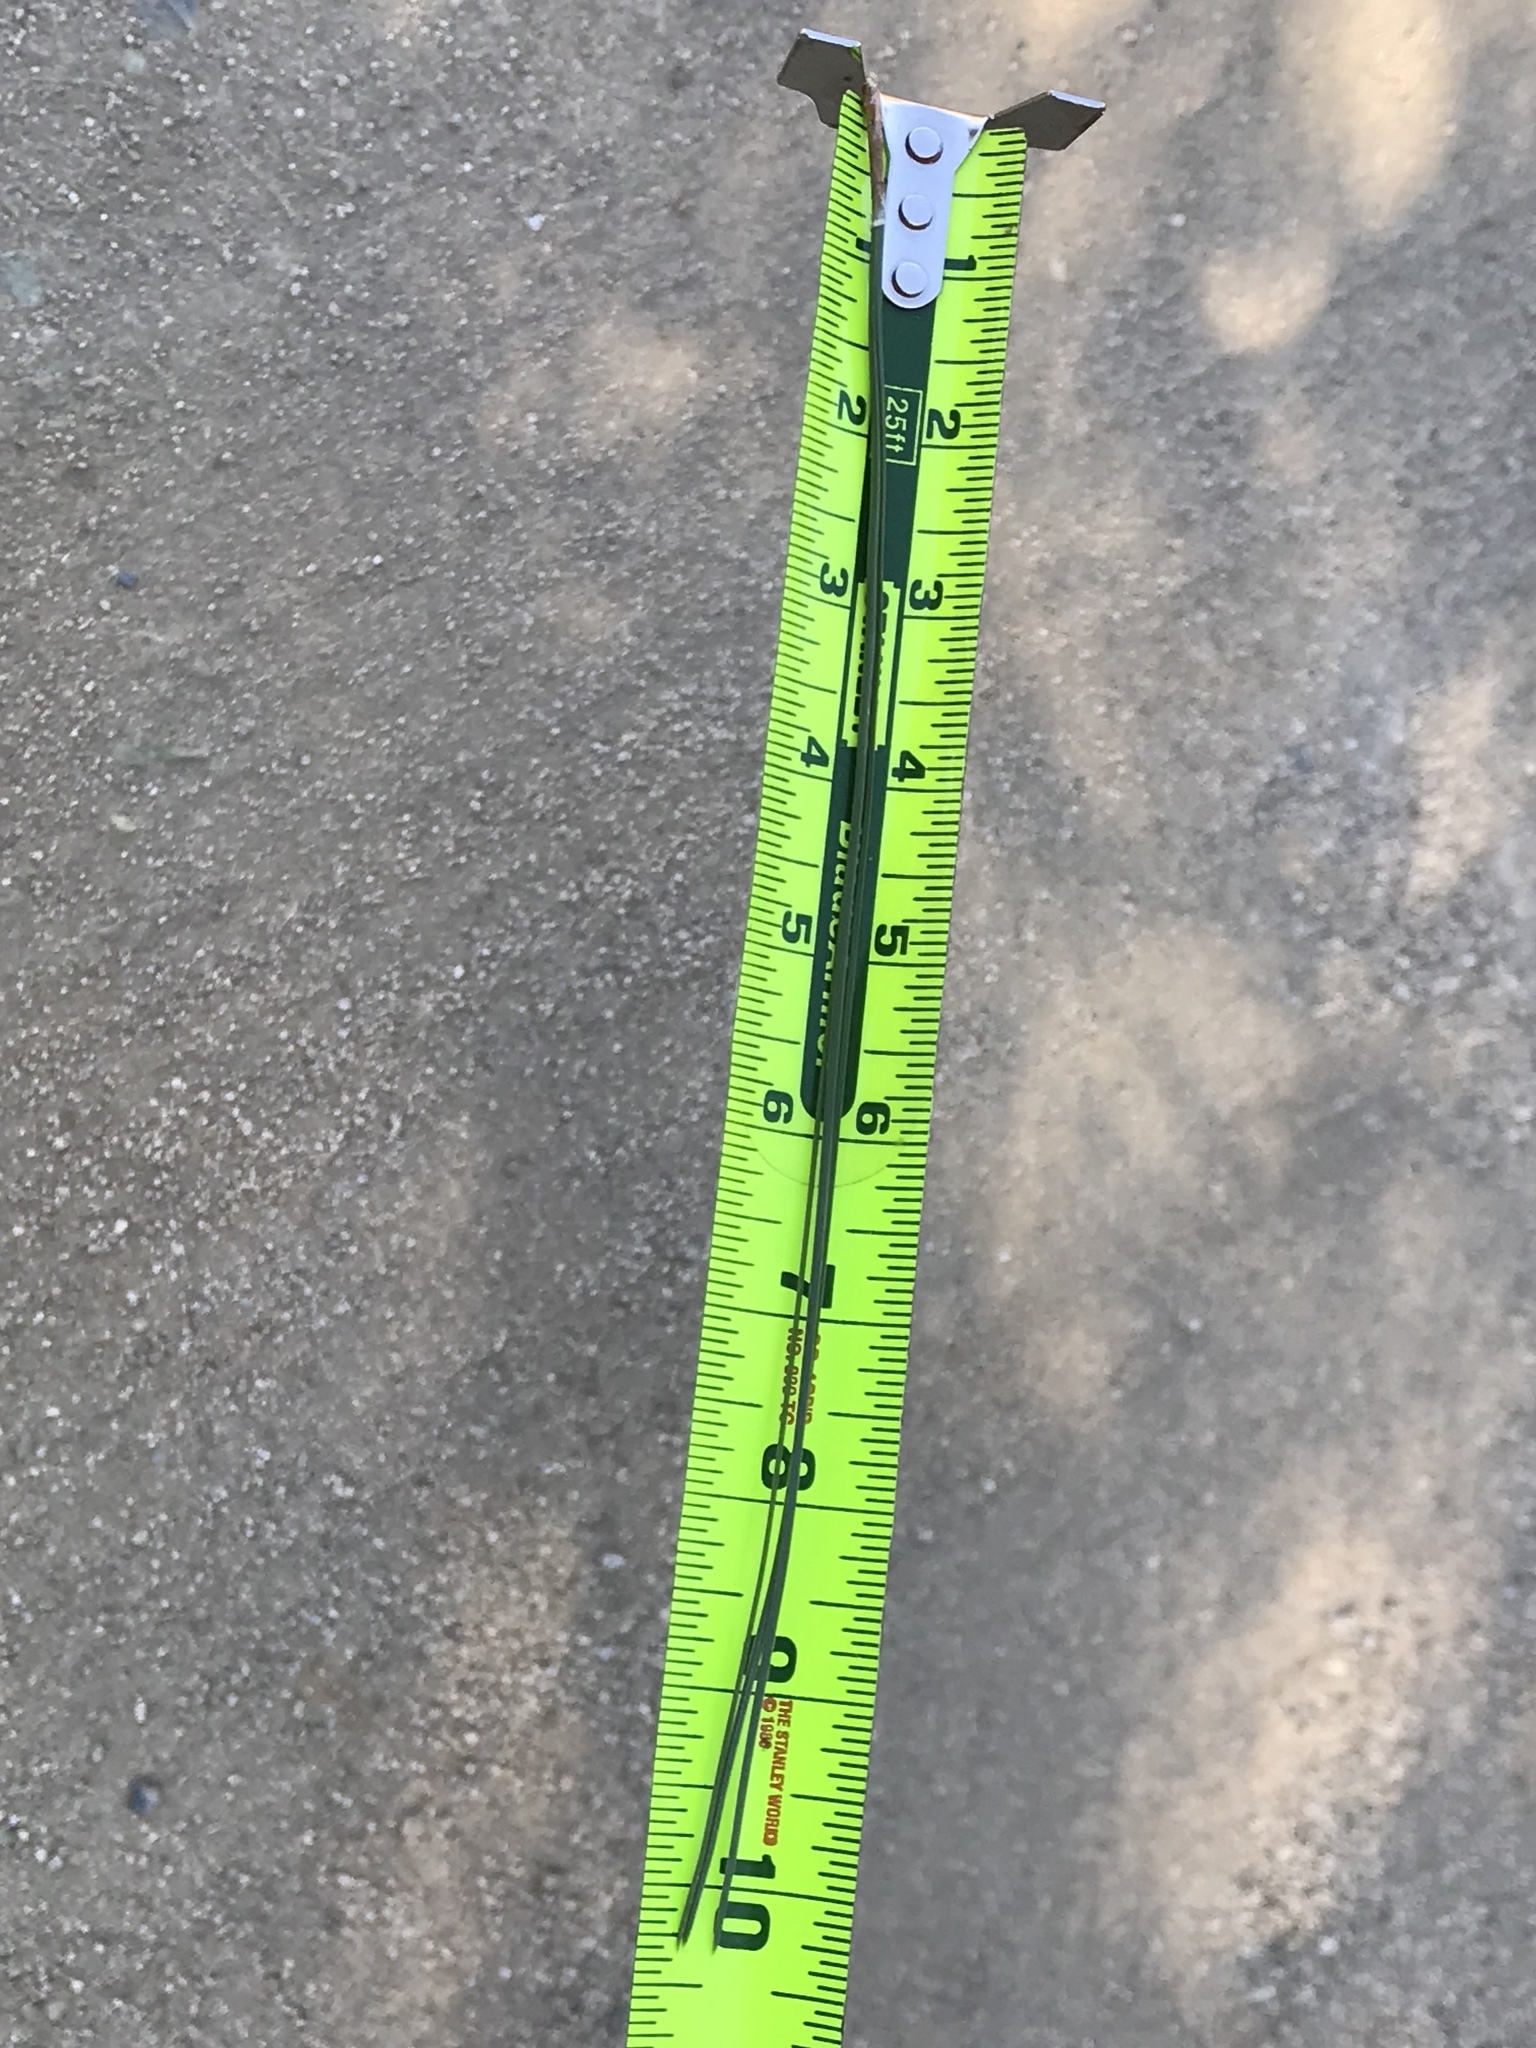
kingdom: Plantae
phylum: Tracheophyta
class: Pinopsida
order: Pinales
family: Pinaceae
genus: Pinus
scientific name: Pinus ponderosa
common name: Western yellow-pine
